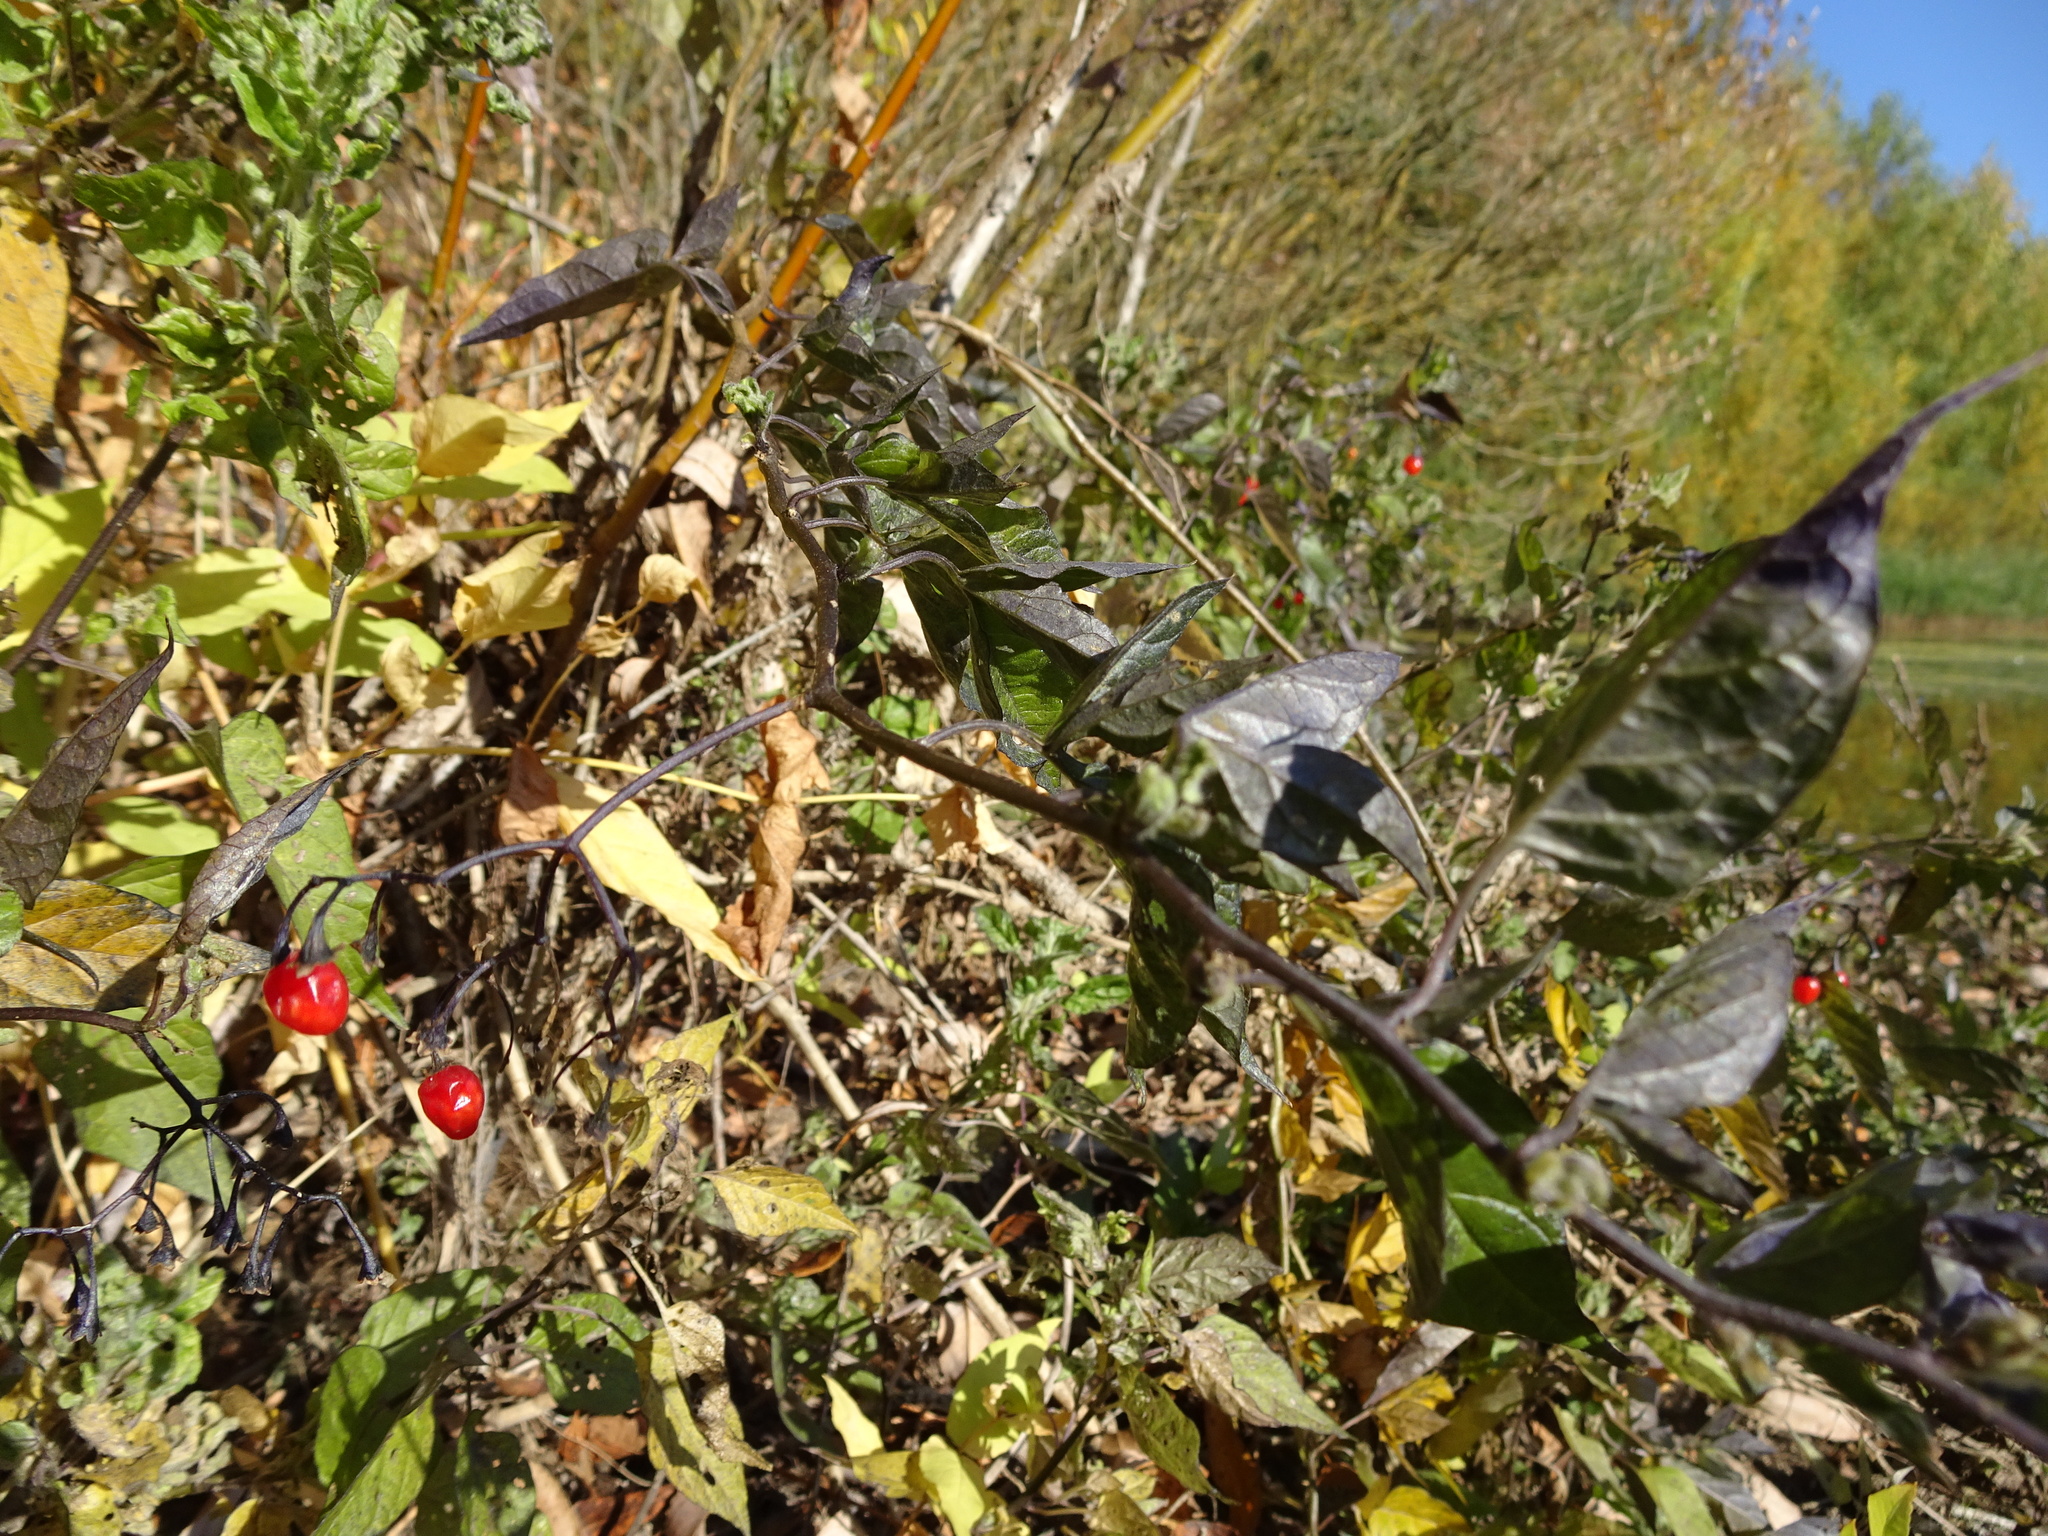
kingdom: Plantae
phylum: Tracheophyta
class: Magnoliopsida
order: Solanales
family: Solanaceae
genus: Solanum
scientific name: Solanum dulcamara
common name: Climbing nightshade
